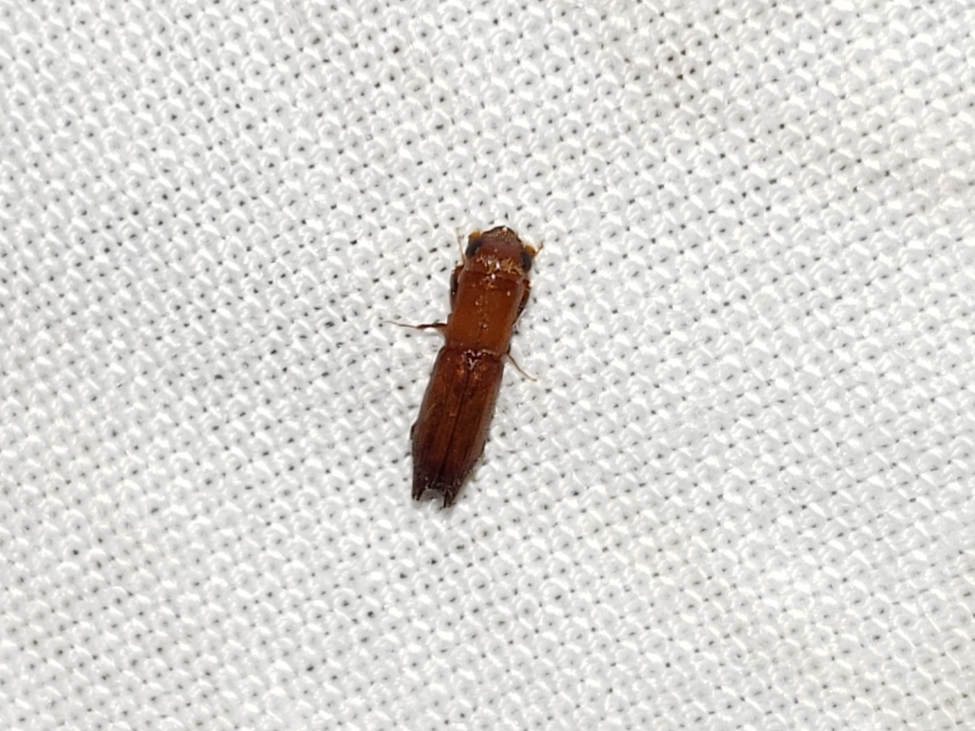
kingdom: Animalia
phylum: Arthropoda
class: Insecta
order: Coleoptera
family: Curculionidae
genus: Euplatypus
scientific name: Euplatypus compositus
